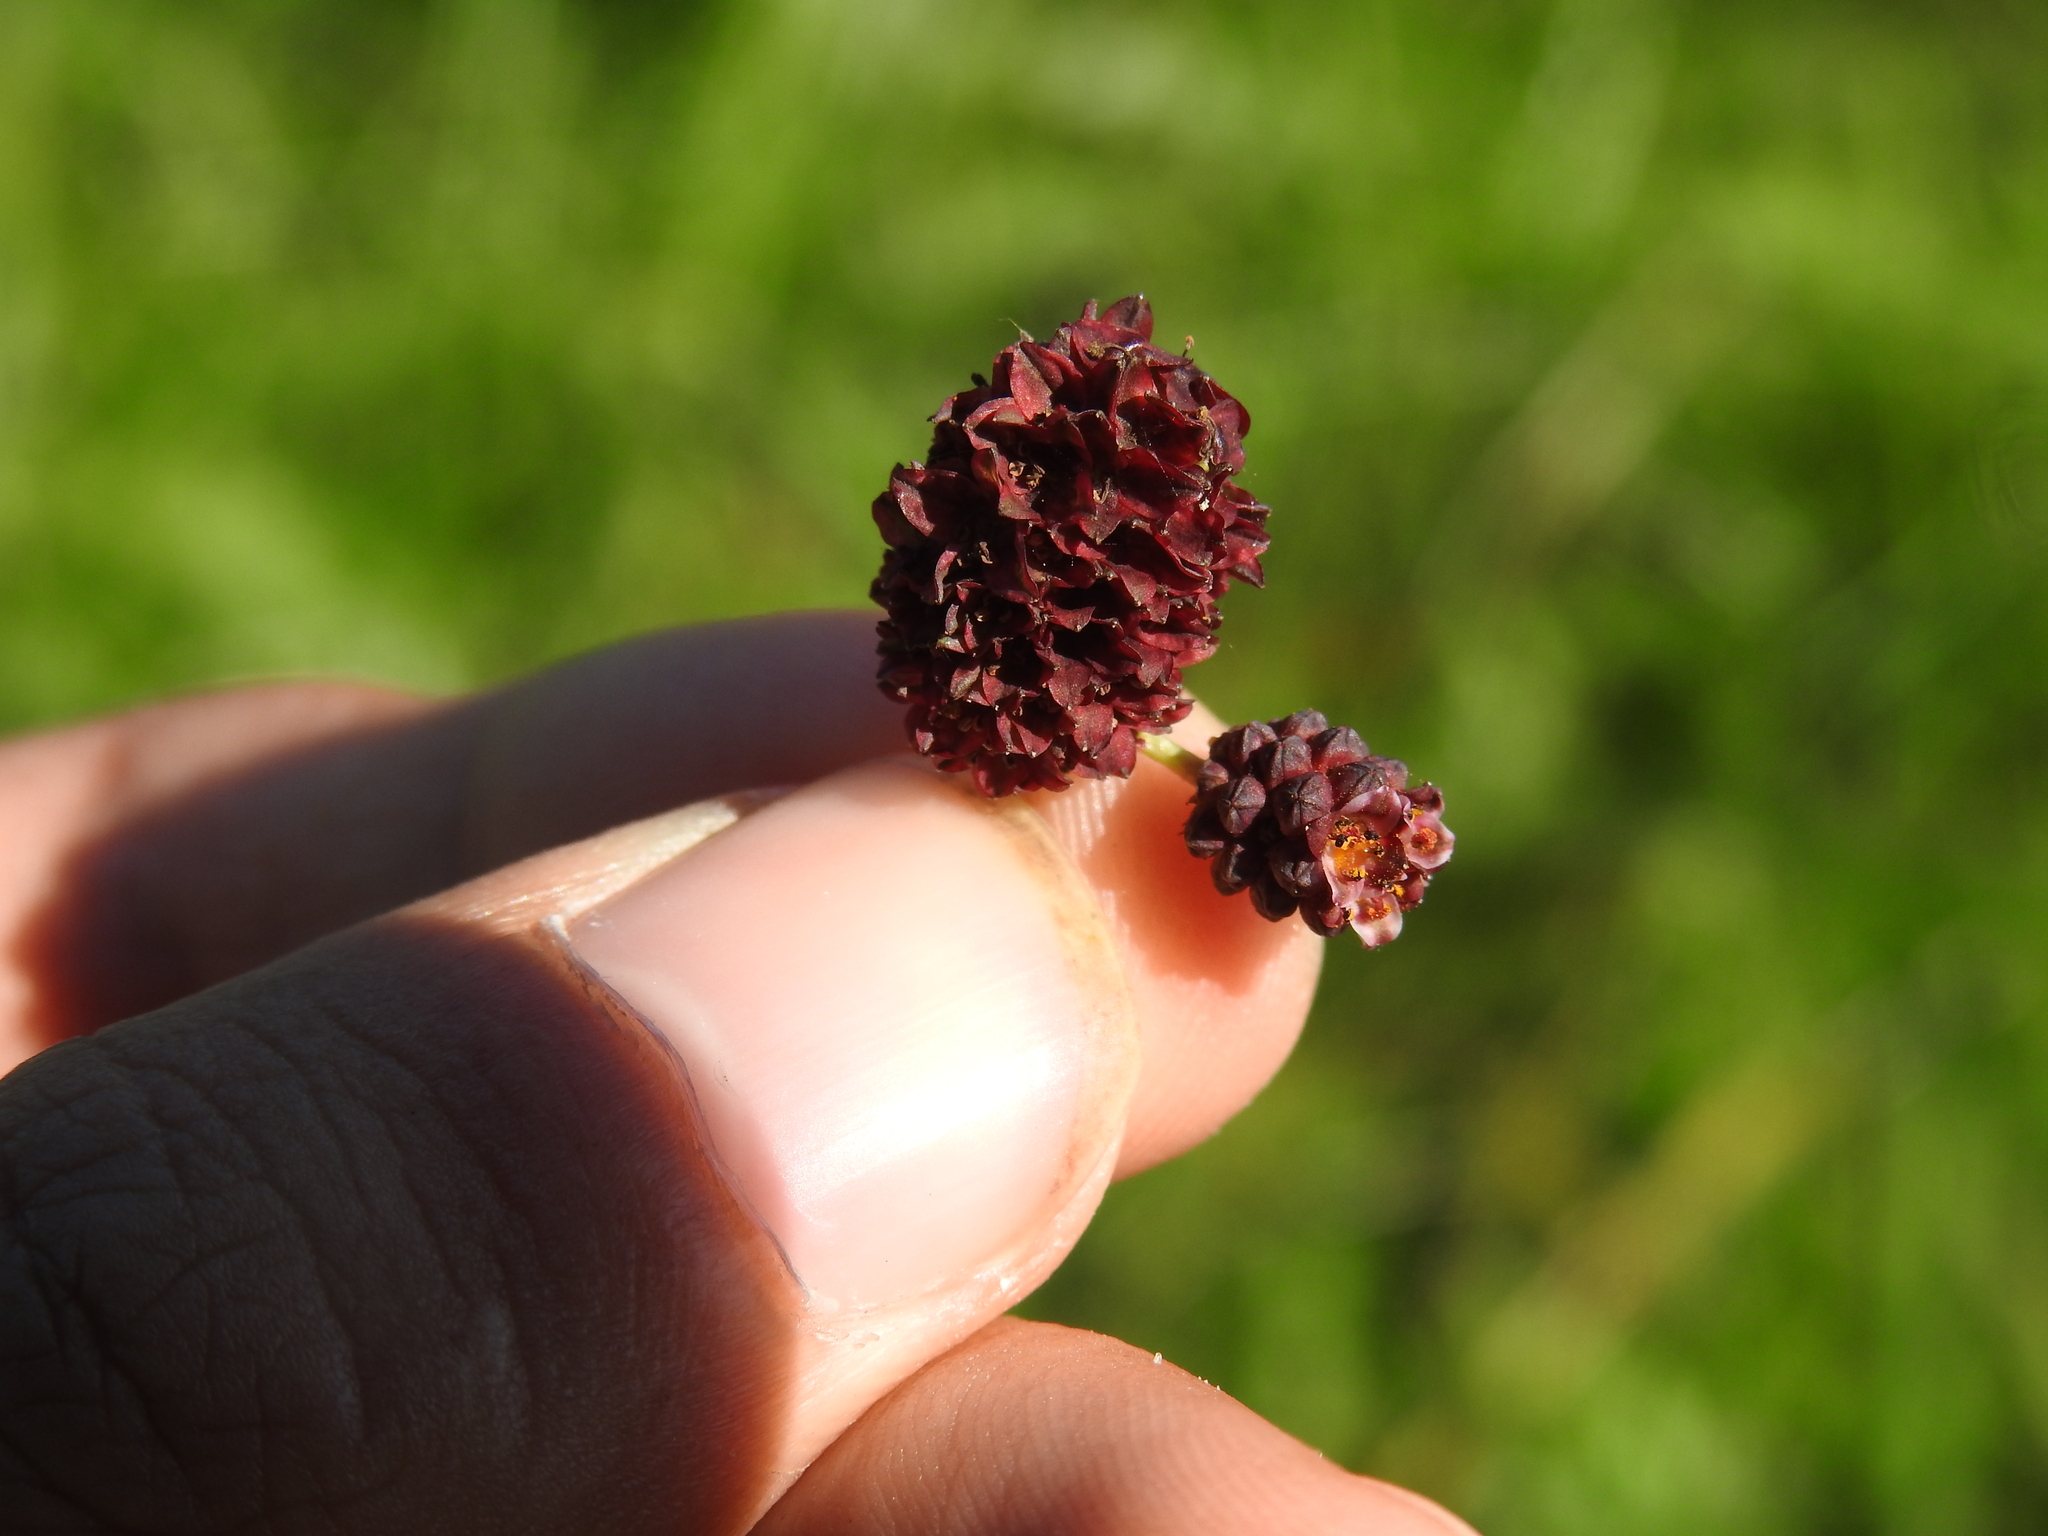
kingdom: Plantae
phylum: Tracheophyta
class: Magnoliopsida
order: Rosales
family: Rosaceae
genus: Sanguisorba
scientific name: Sanguisorba officinalis
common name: Great burnet
